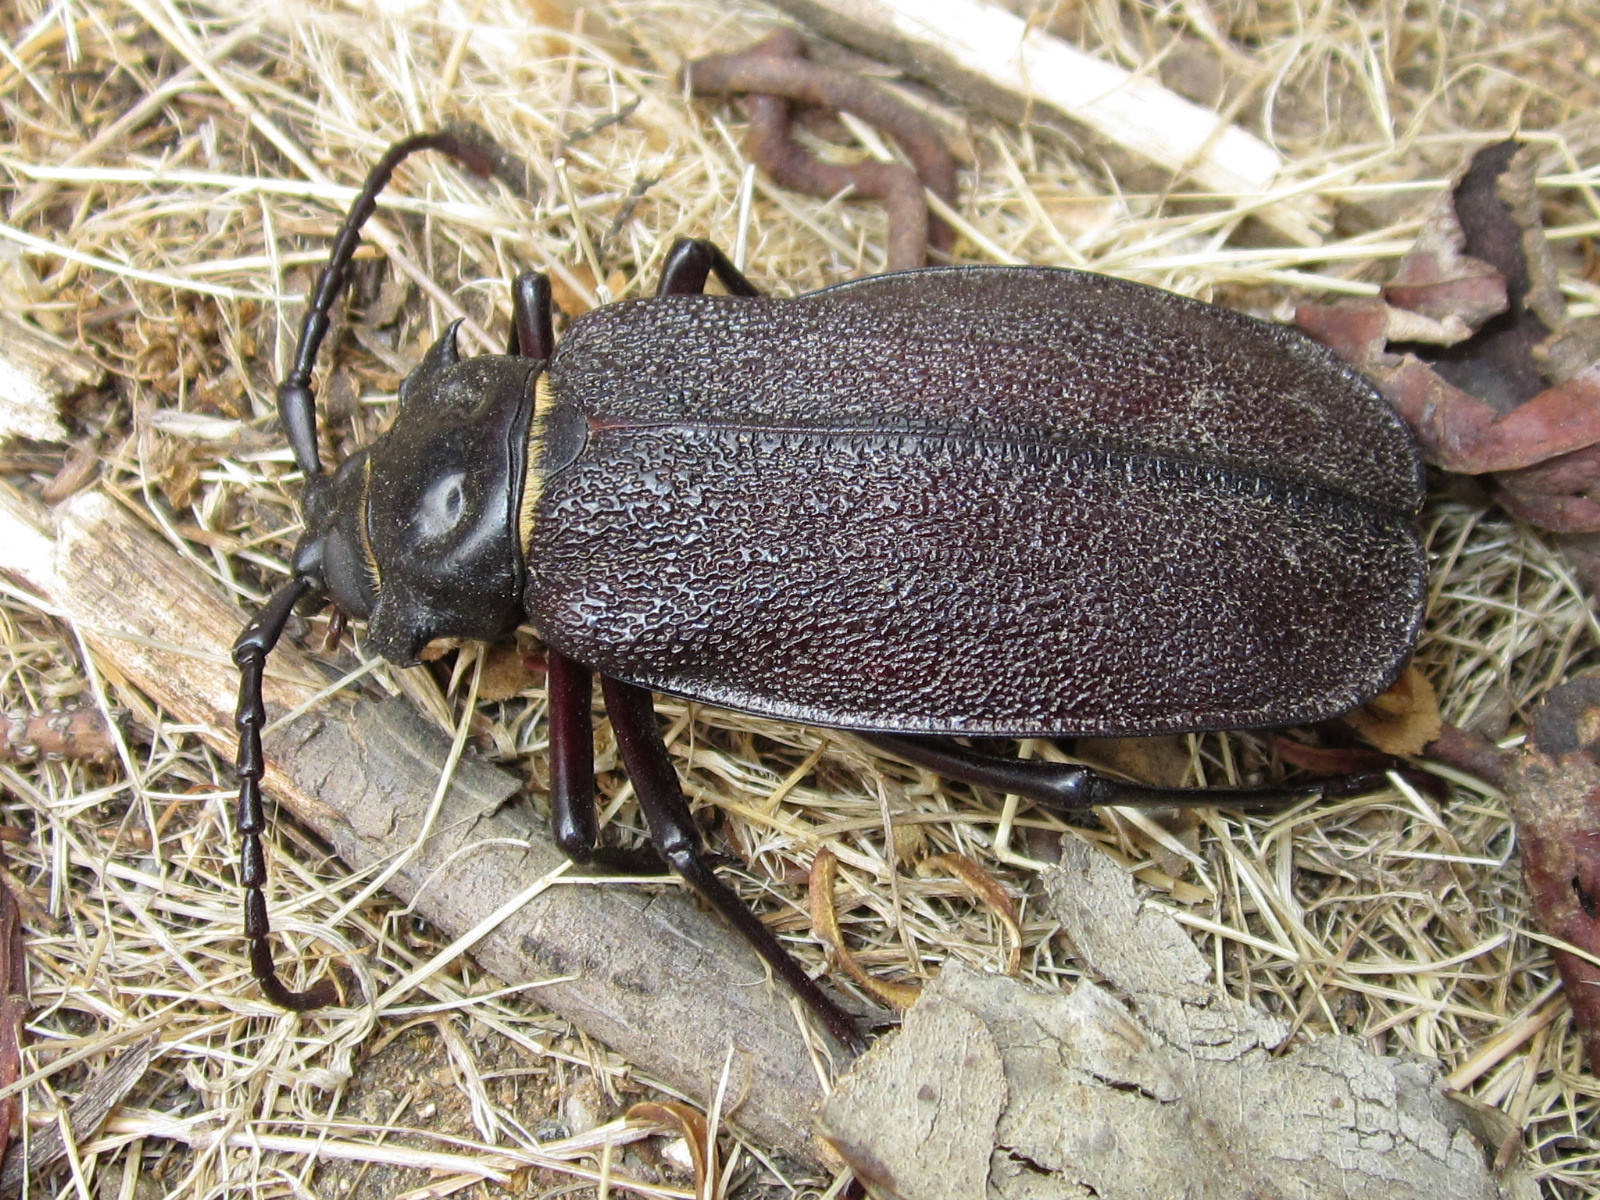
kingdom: Animalia
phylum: Arthropoda
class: Insecta
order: Coleoptera
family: Cerambycidae
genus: Acanthinodera
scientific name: Acanthinodera cumingii
